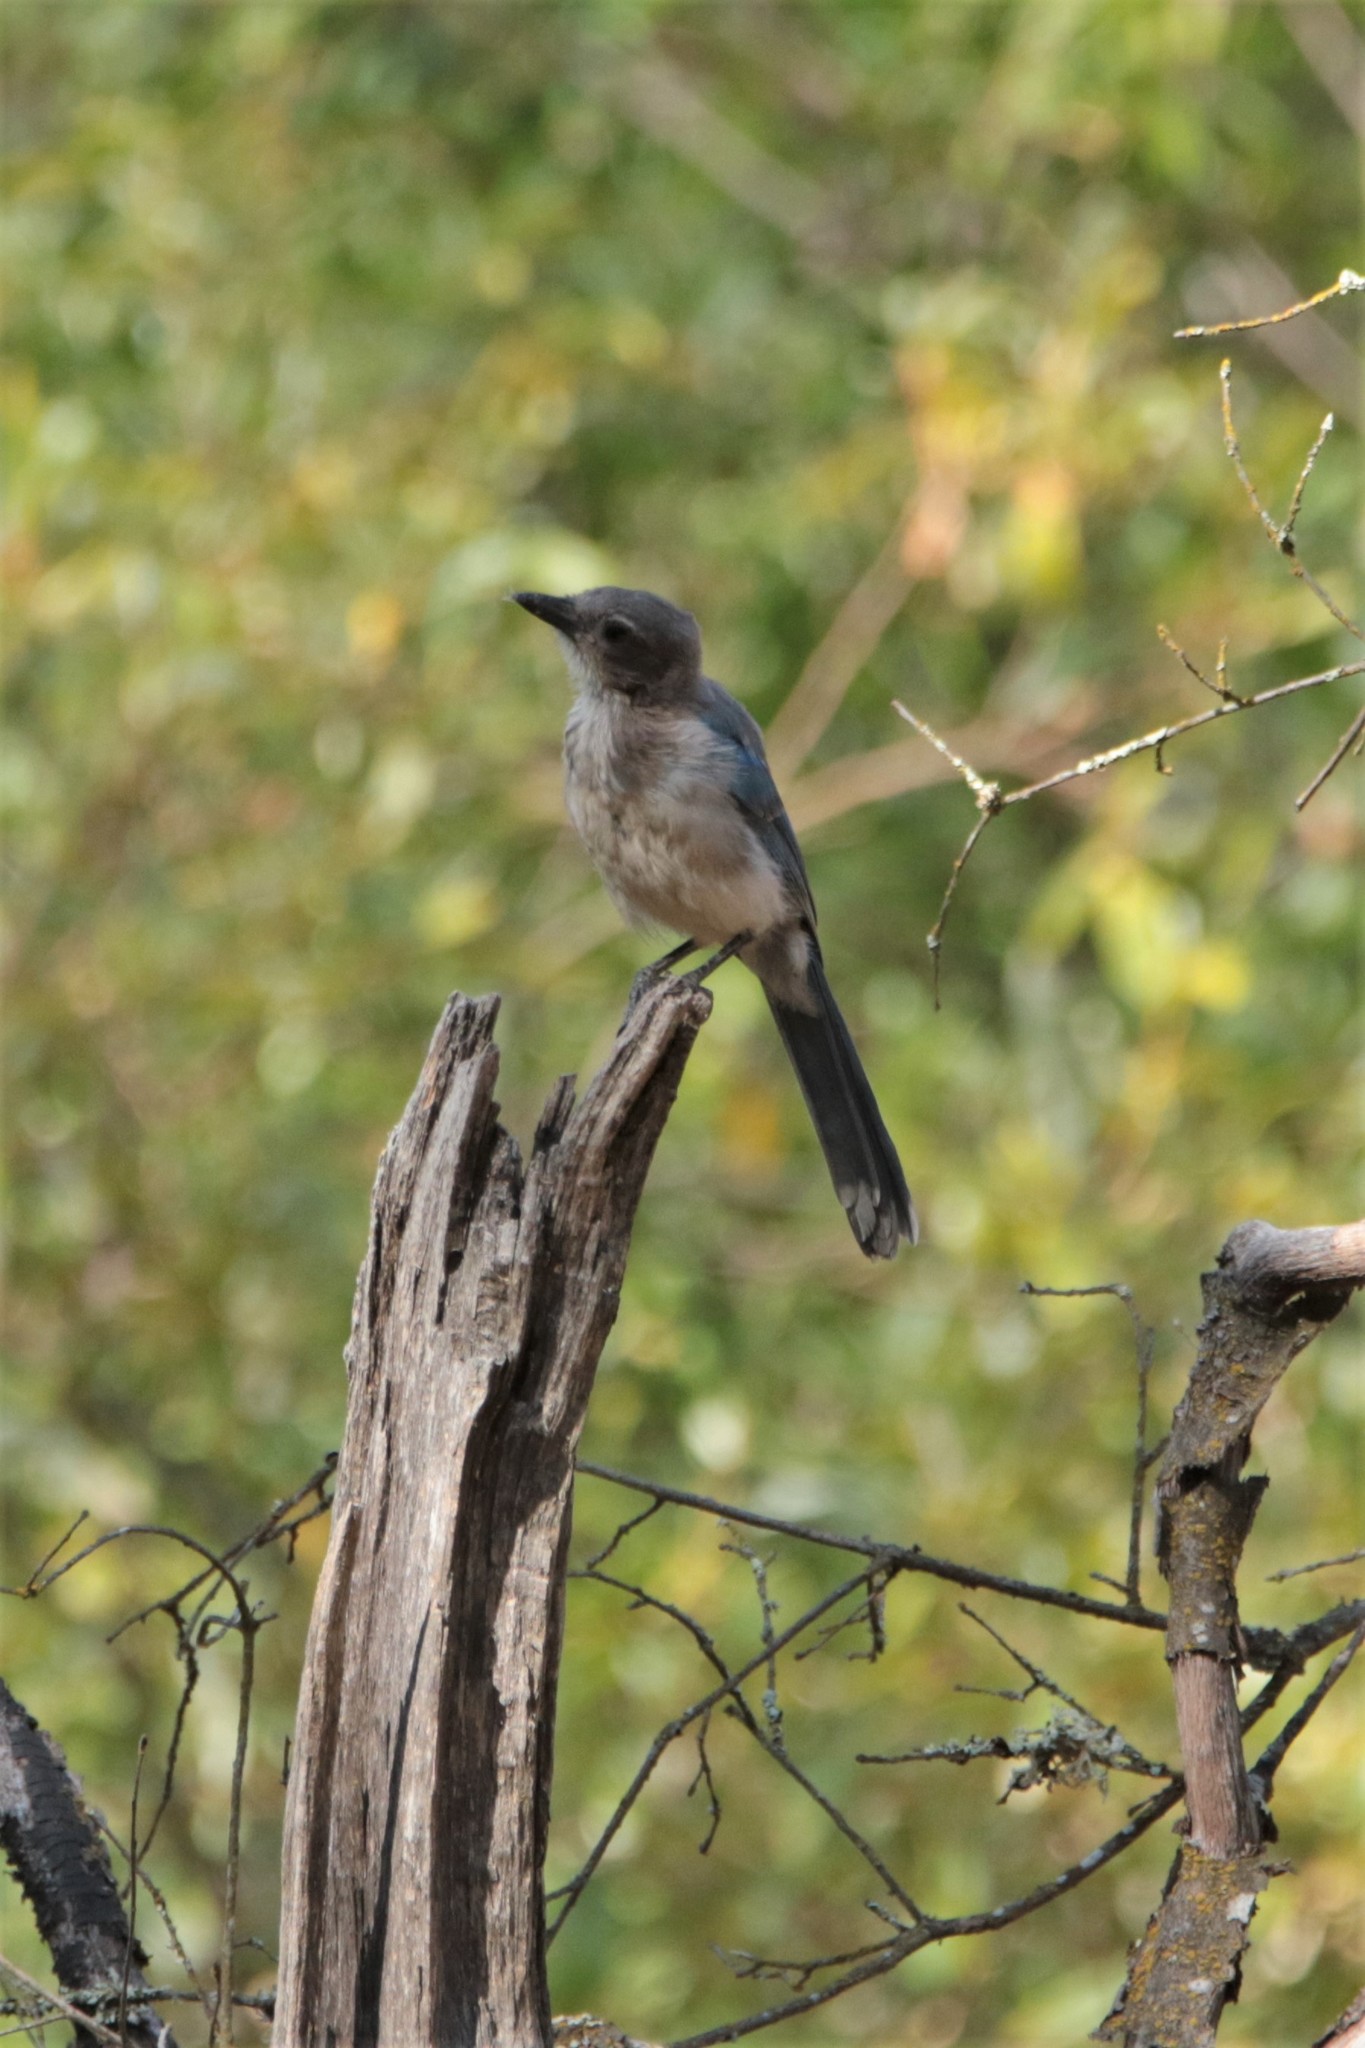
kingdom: Animalia
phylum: Chordata
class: Aves
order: Passeriformes
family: Corvidae
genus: Aphelocoma
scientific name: Aphelocoma californica
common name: California scrub-jay
